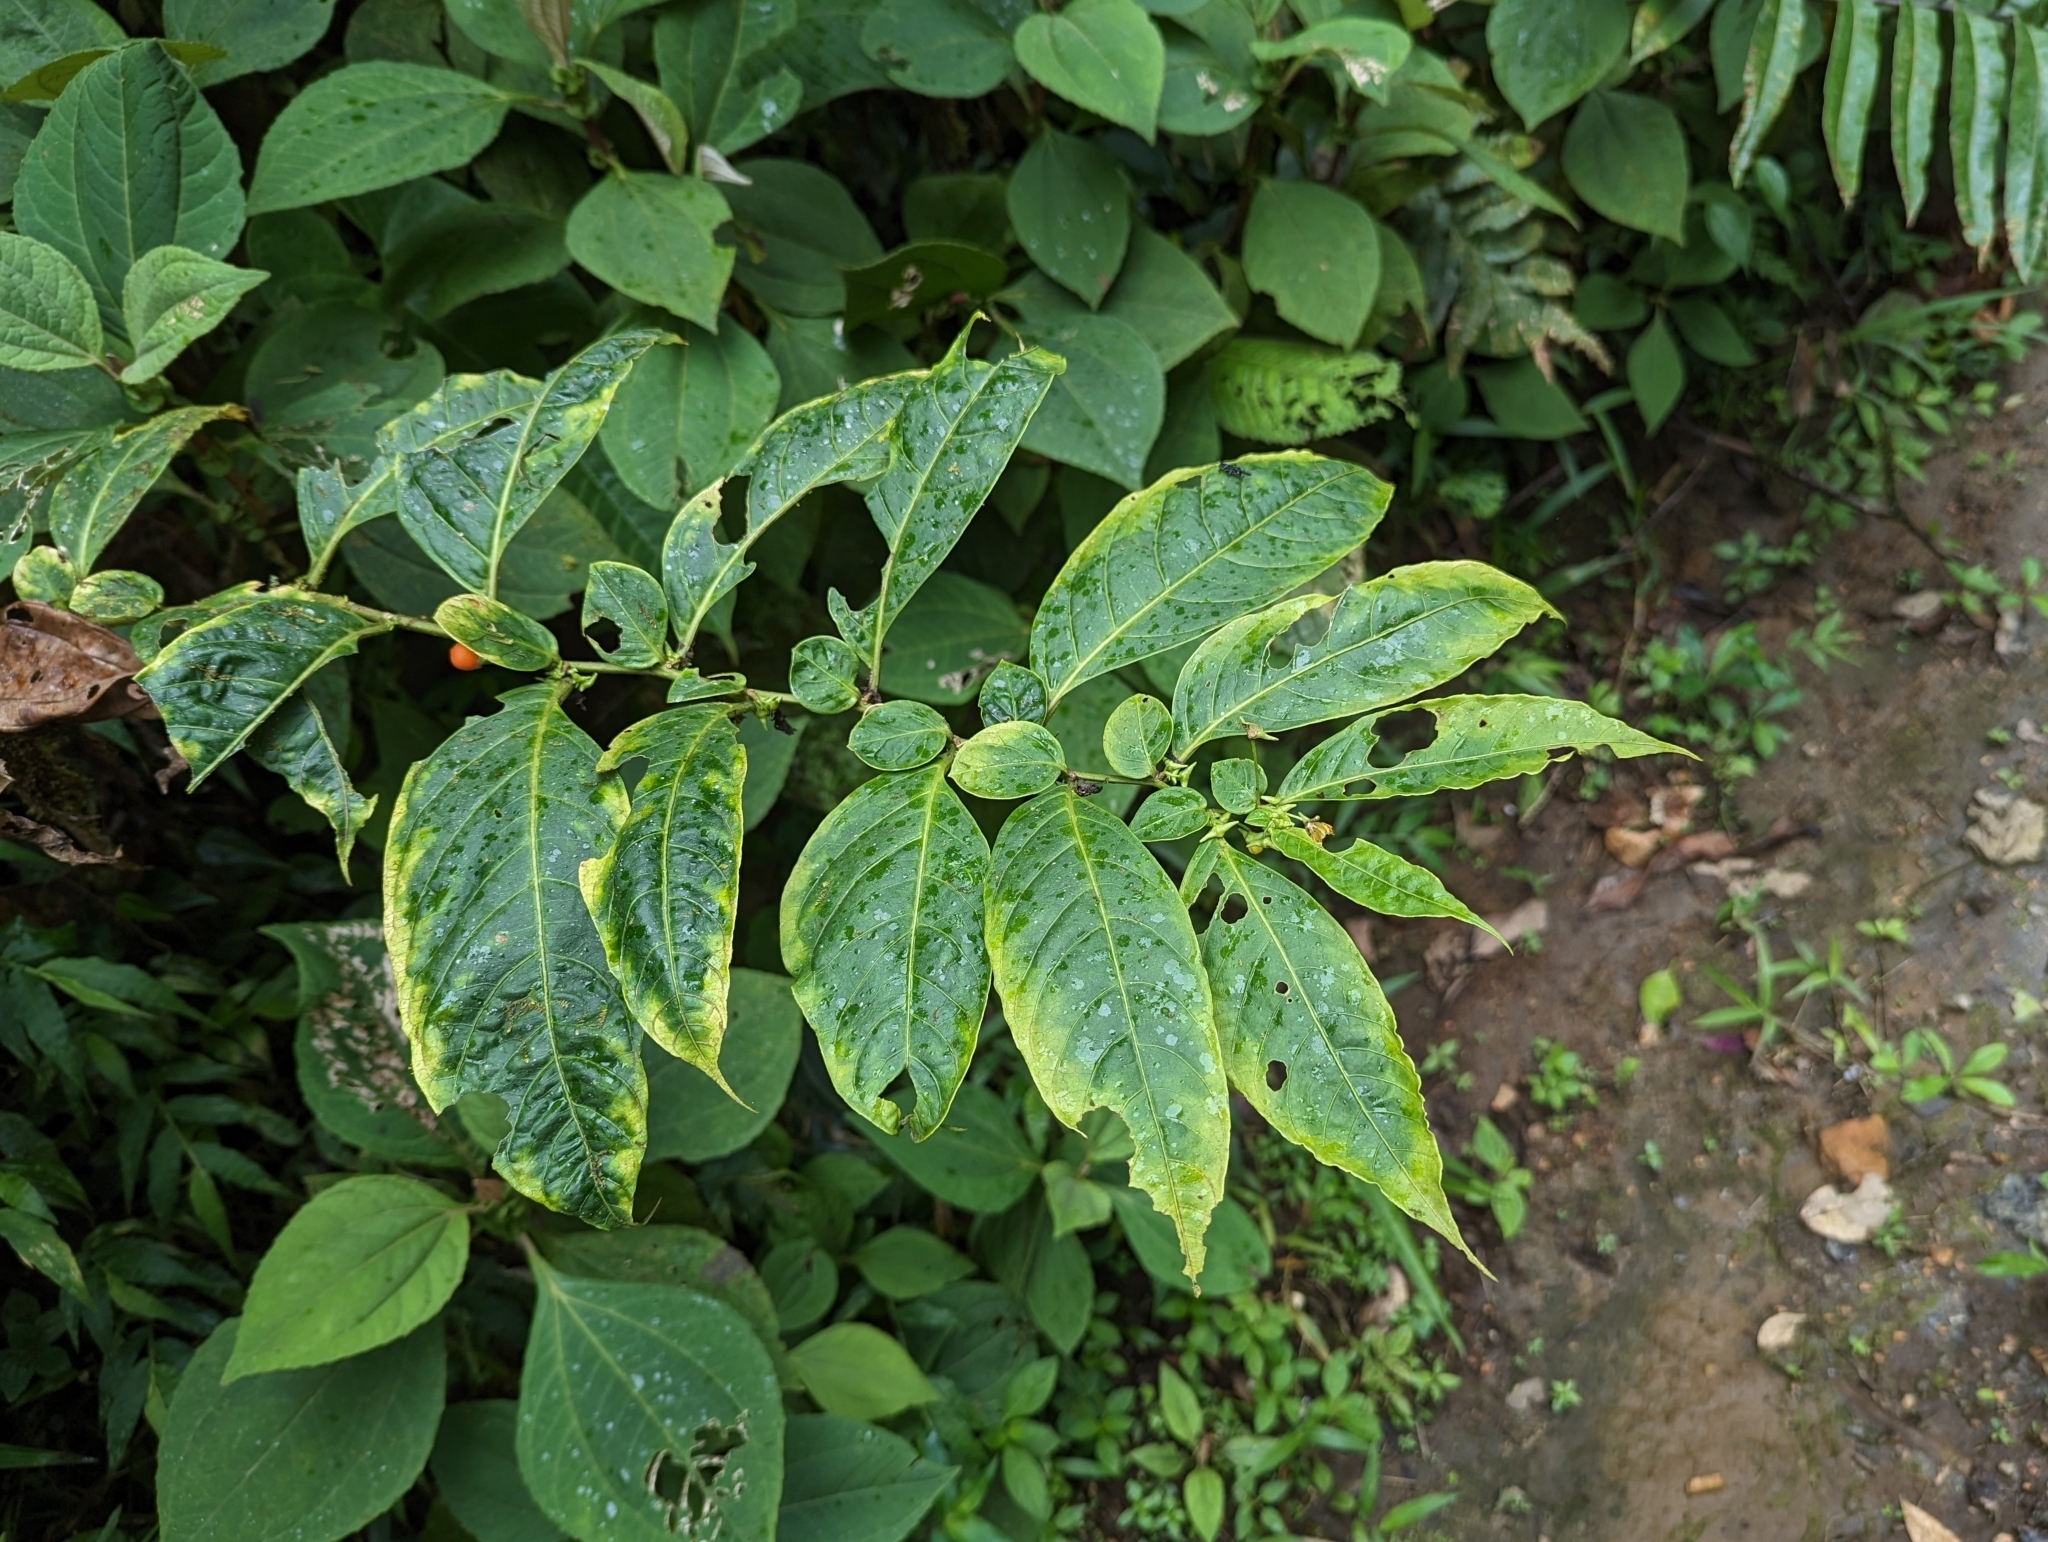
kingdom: Plantae
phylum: Tracheophyta
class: Magnoliopsida
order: Solanales
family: Solanaceae
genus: Capsicum
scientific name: Capsicum lycianthoides
